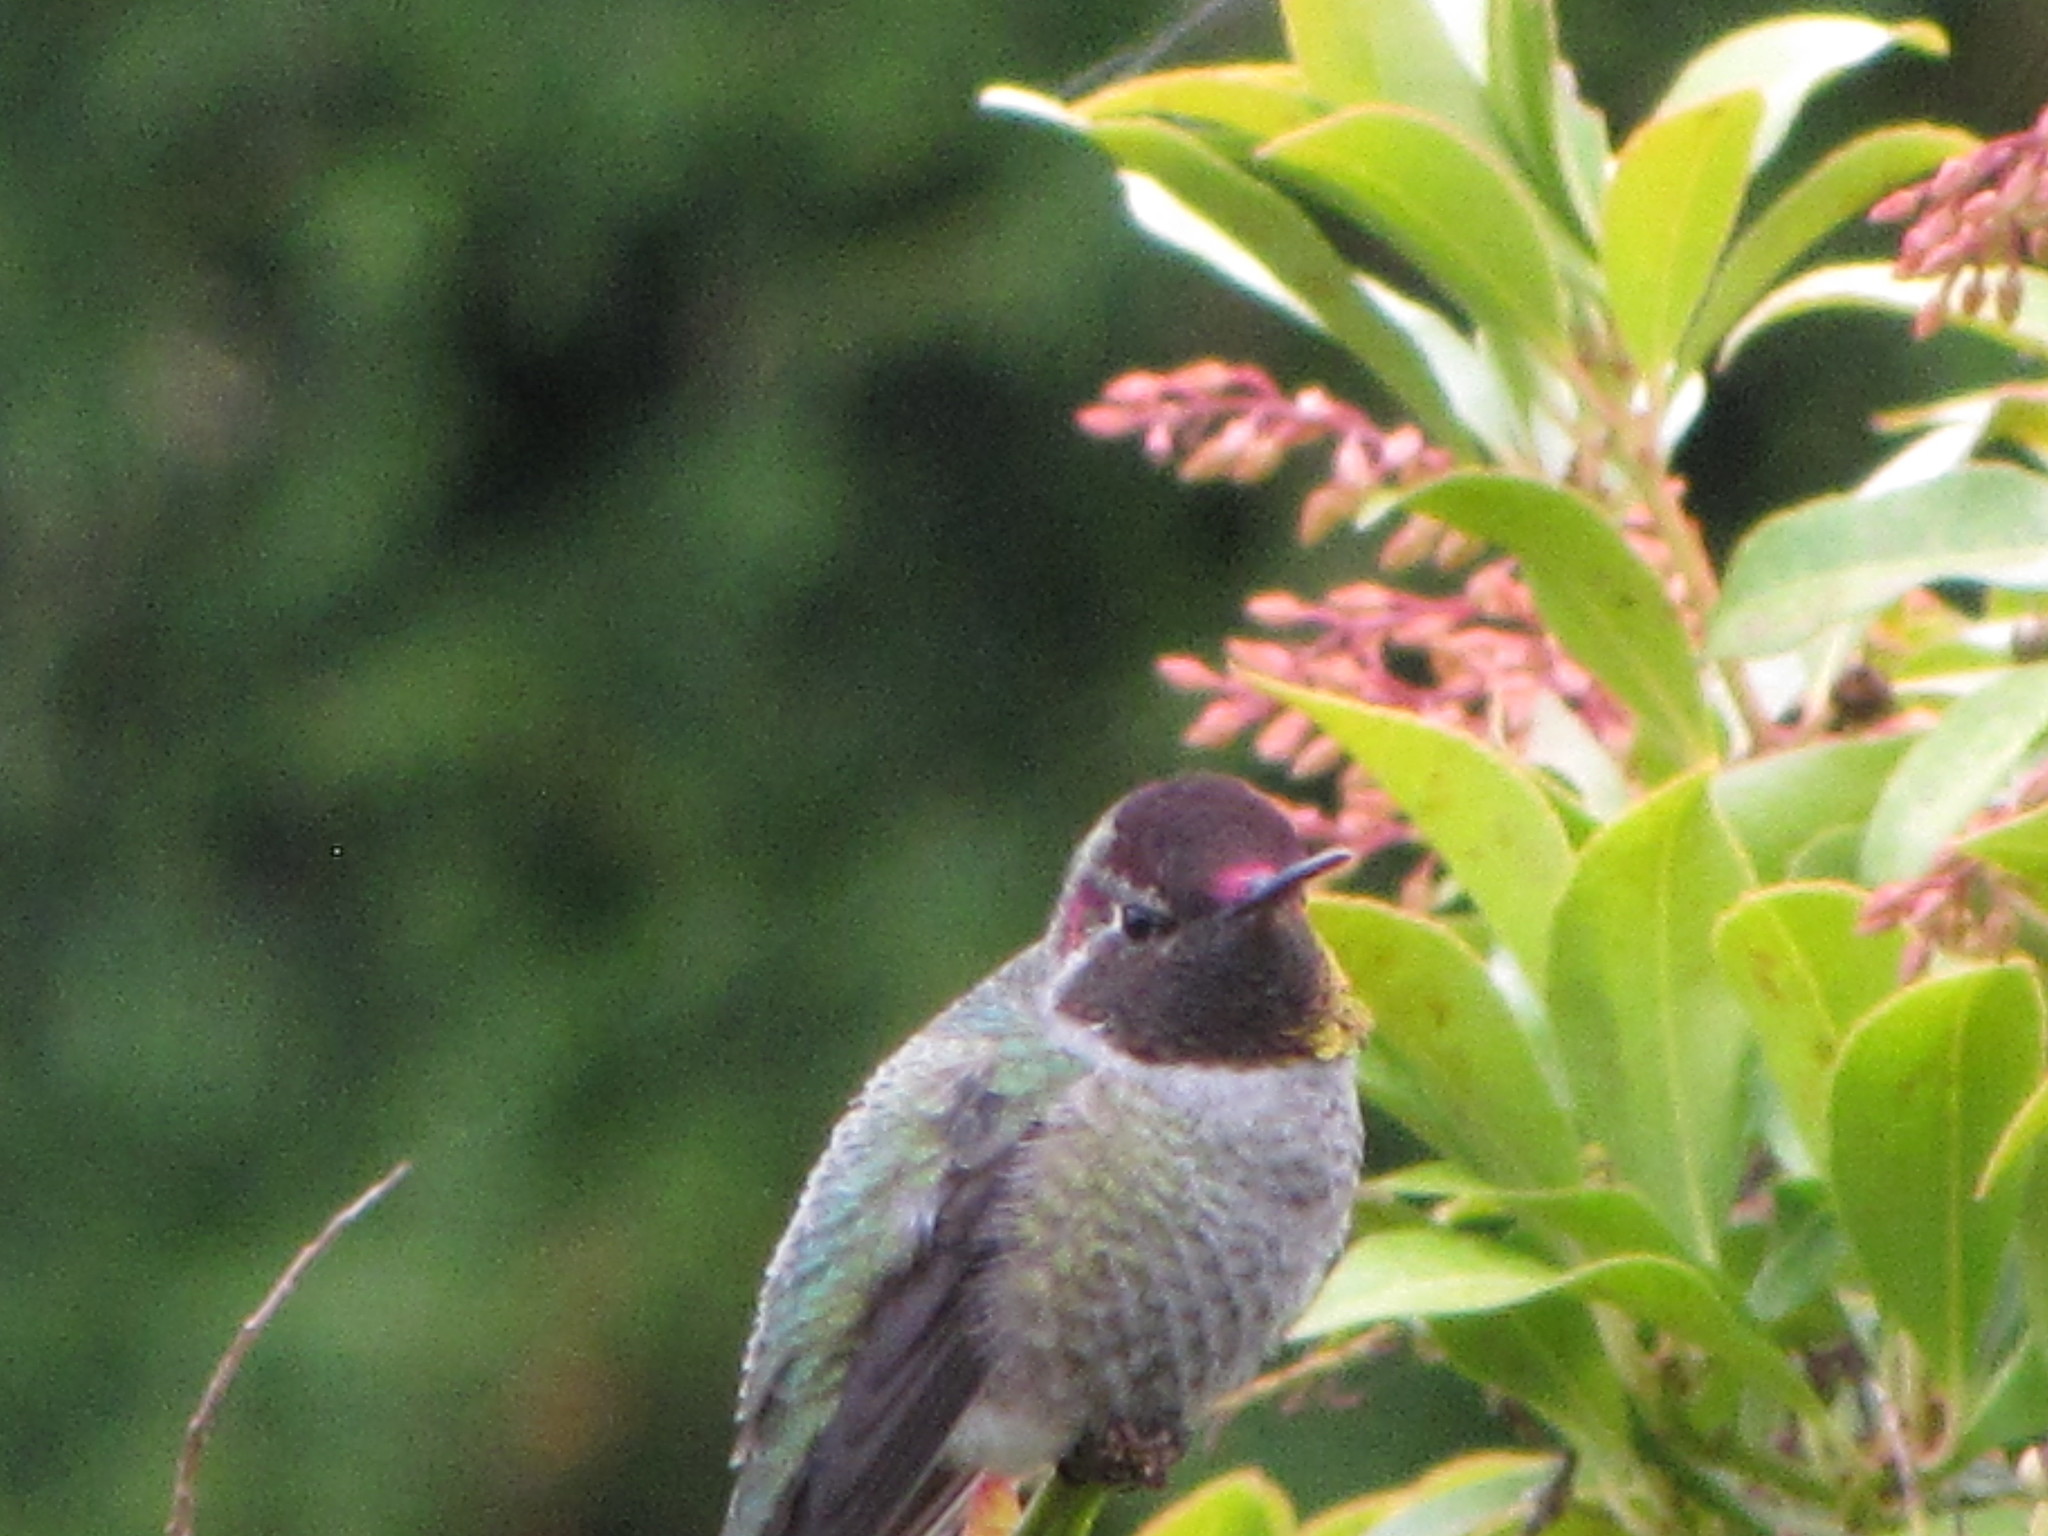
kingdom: Animalia
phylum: Chordata
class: Aves
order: Apodiformes
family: Trochilidae
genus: Calypte
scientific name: Calypte anna
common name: Anna's hummingbird
